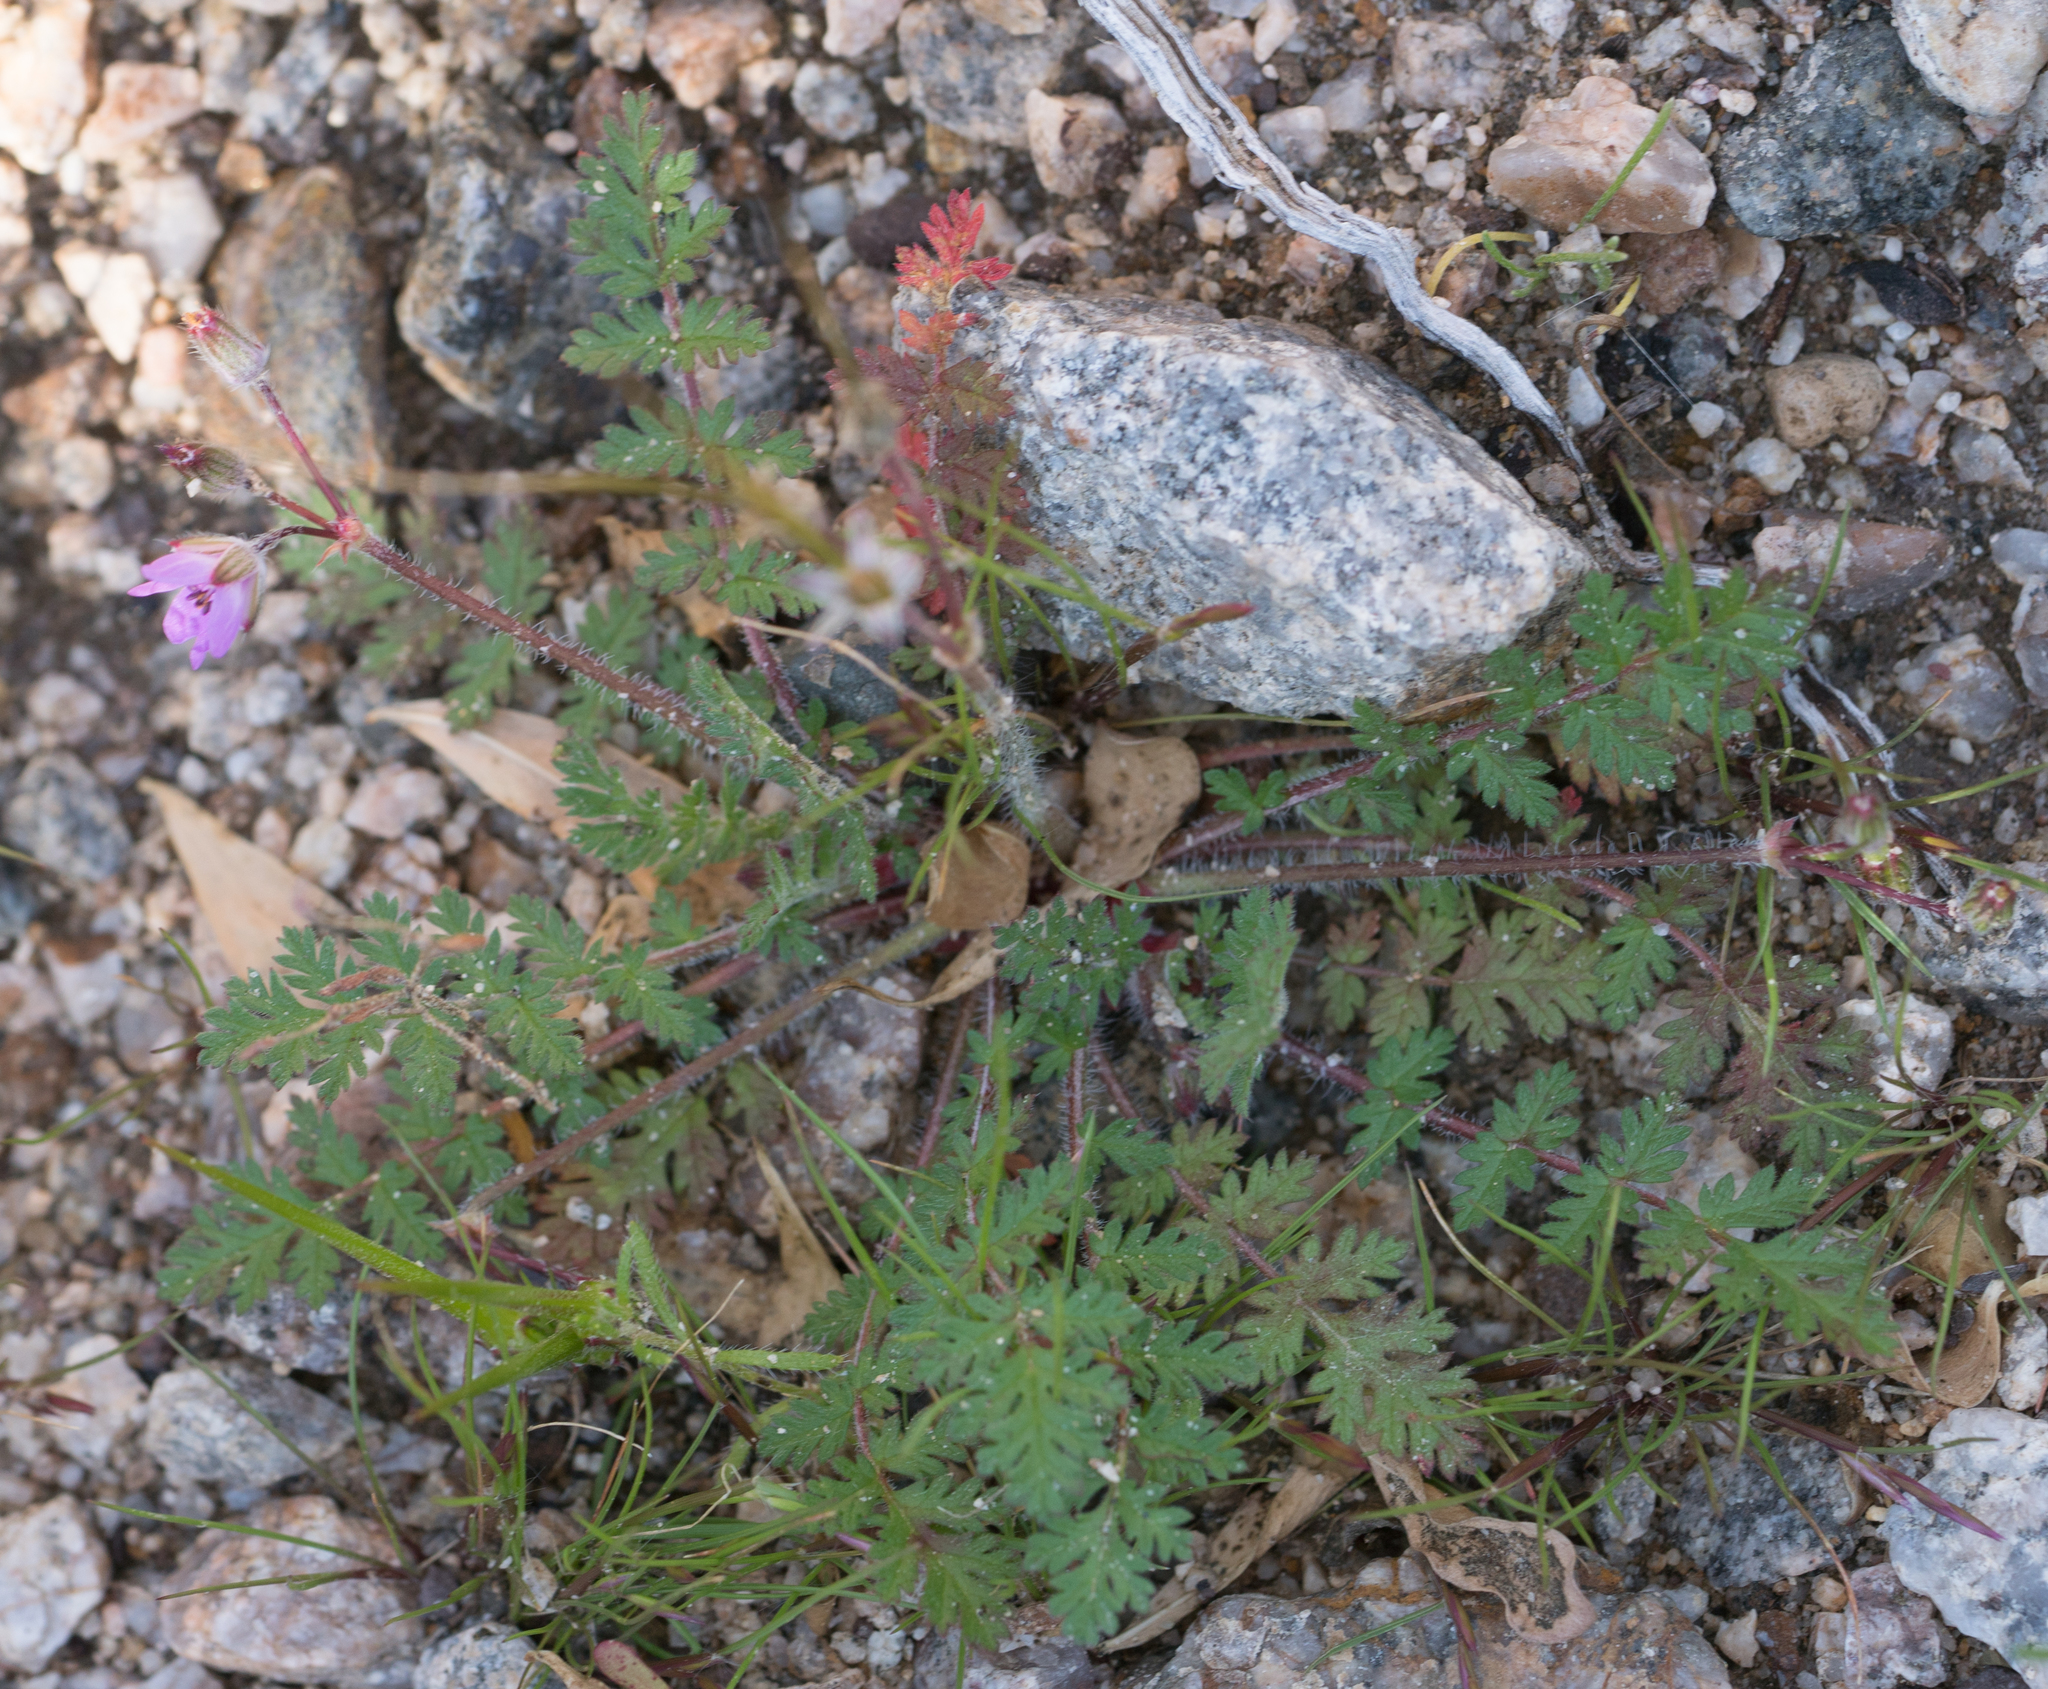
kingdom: Plantae
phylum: Tracheophyta
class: Magnoliopsida
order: Geraniales
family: Geraniaceae
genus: Erodium
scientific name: Erodium cicutarium
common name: Common stork's-bill
